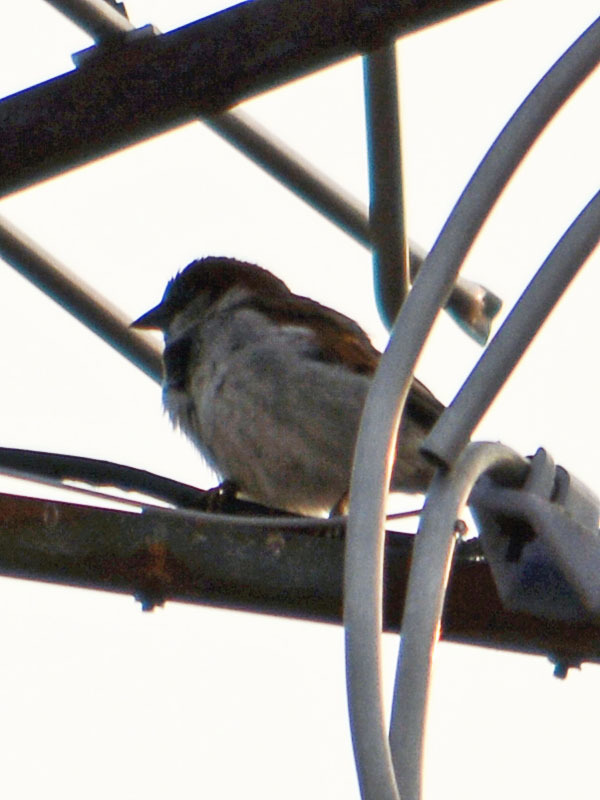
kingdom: Animalia
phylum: Chordata
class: Aves
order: Passeriformes
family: Passeridae
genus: Passer
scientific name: Passer domesticus
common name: House sparrow
